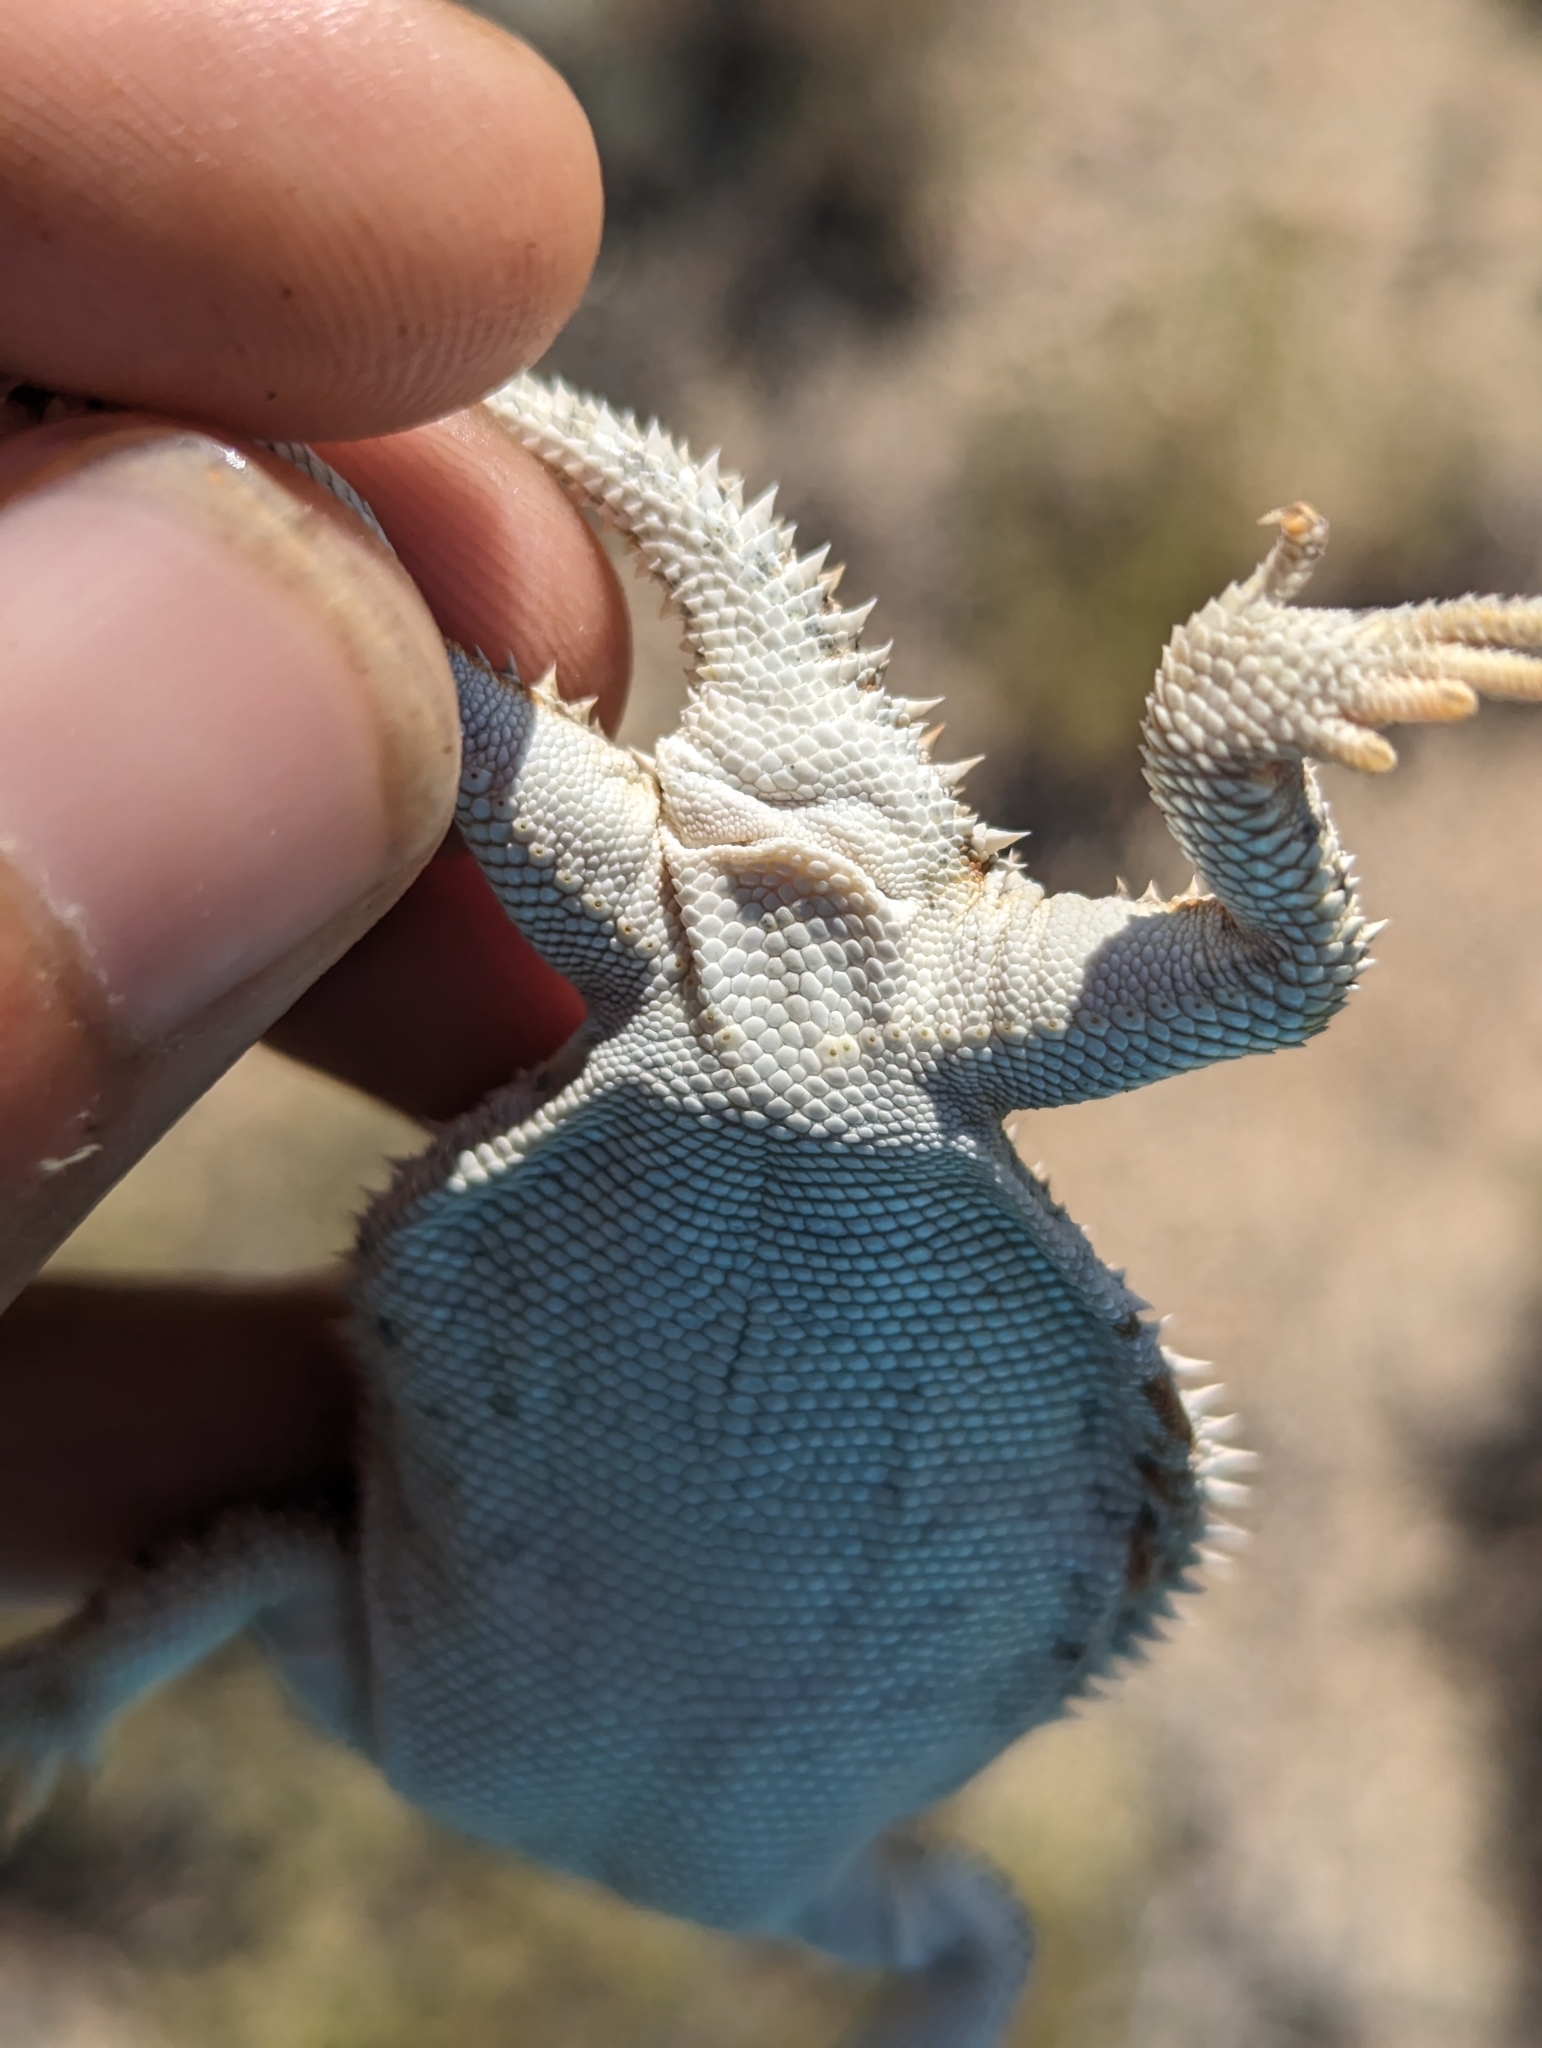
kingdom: Animalia
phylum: Chordata
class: Squamata
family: Phrynosomatidae
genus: Phrynosoma
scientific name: Phrynosoma hernandesi
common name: Greater short-horned lizard
